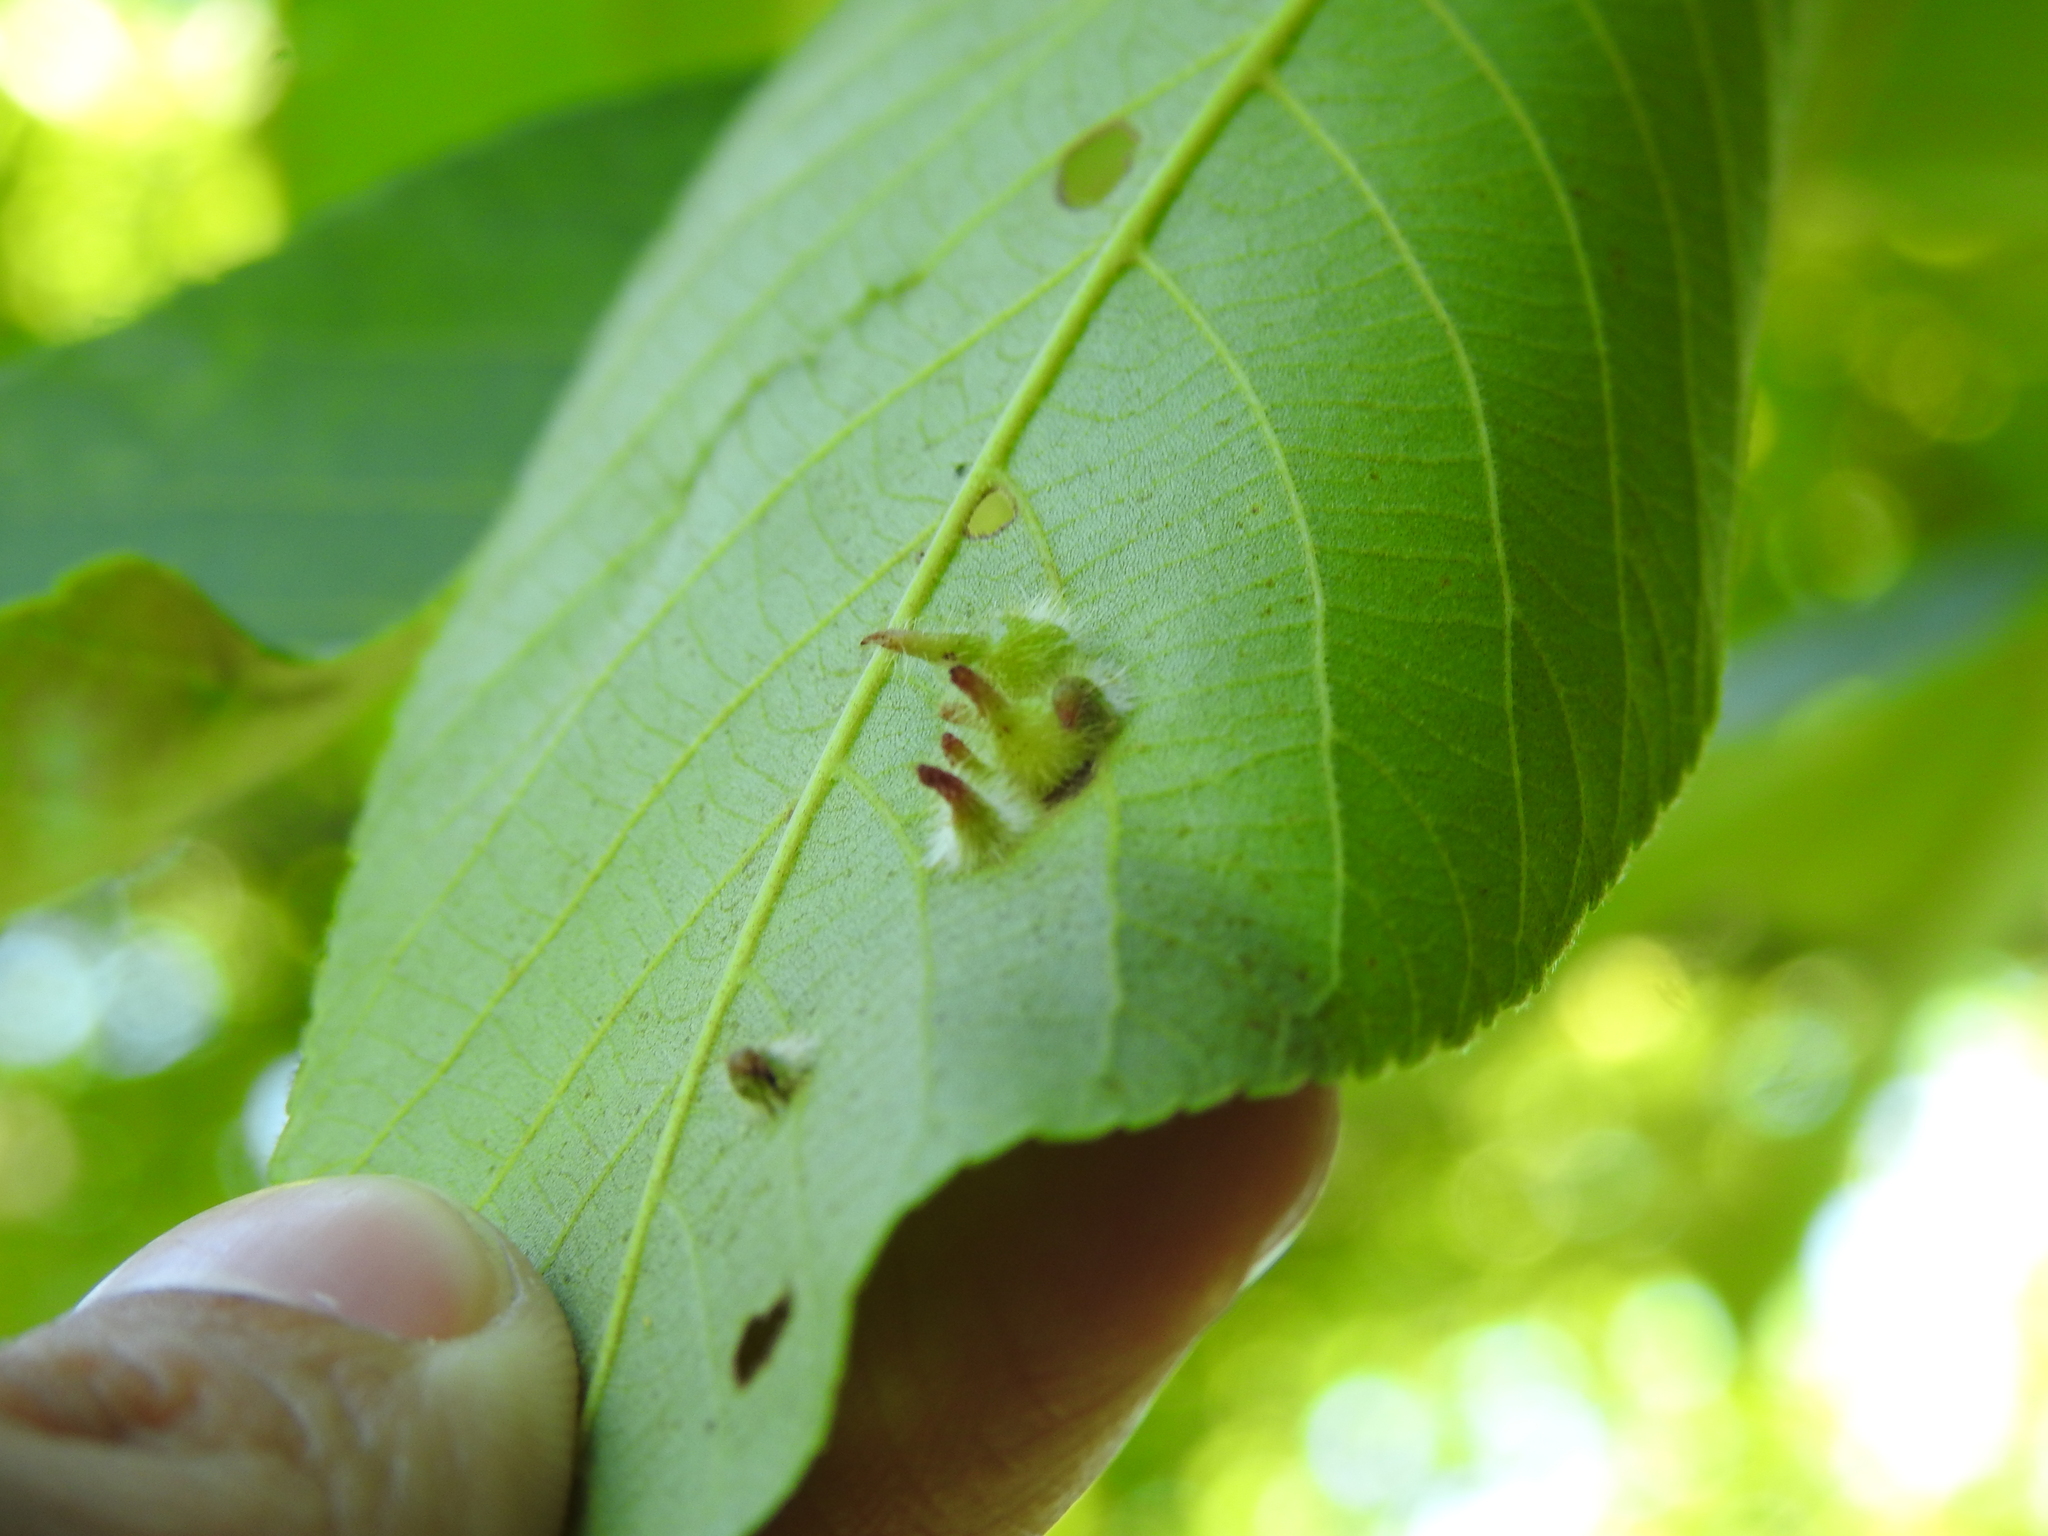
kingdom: Animalia
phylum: Arthropoda
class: Insecta
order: Diptera
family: Cecidomyiidae
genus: Caryomyia
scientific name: Caryomyia echinata
